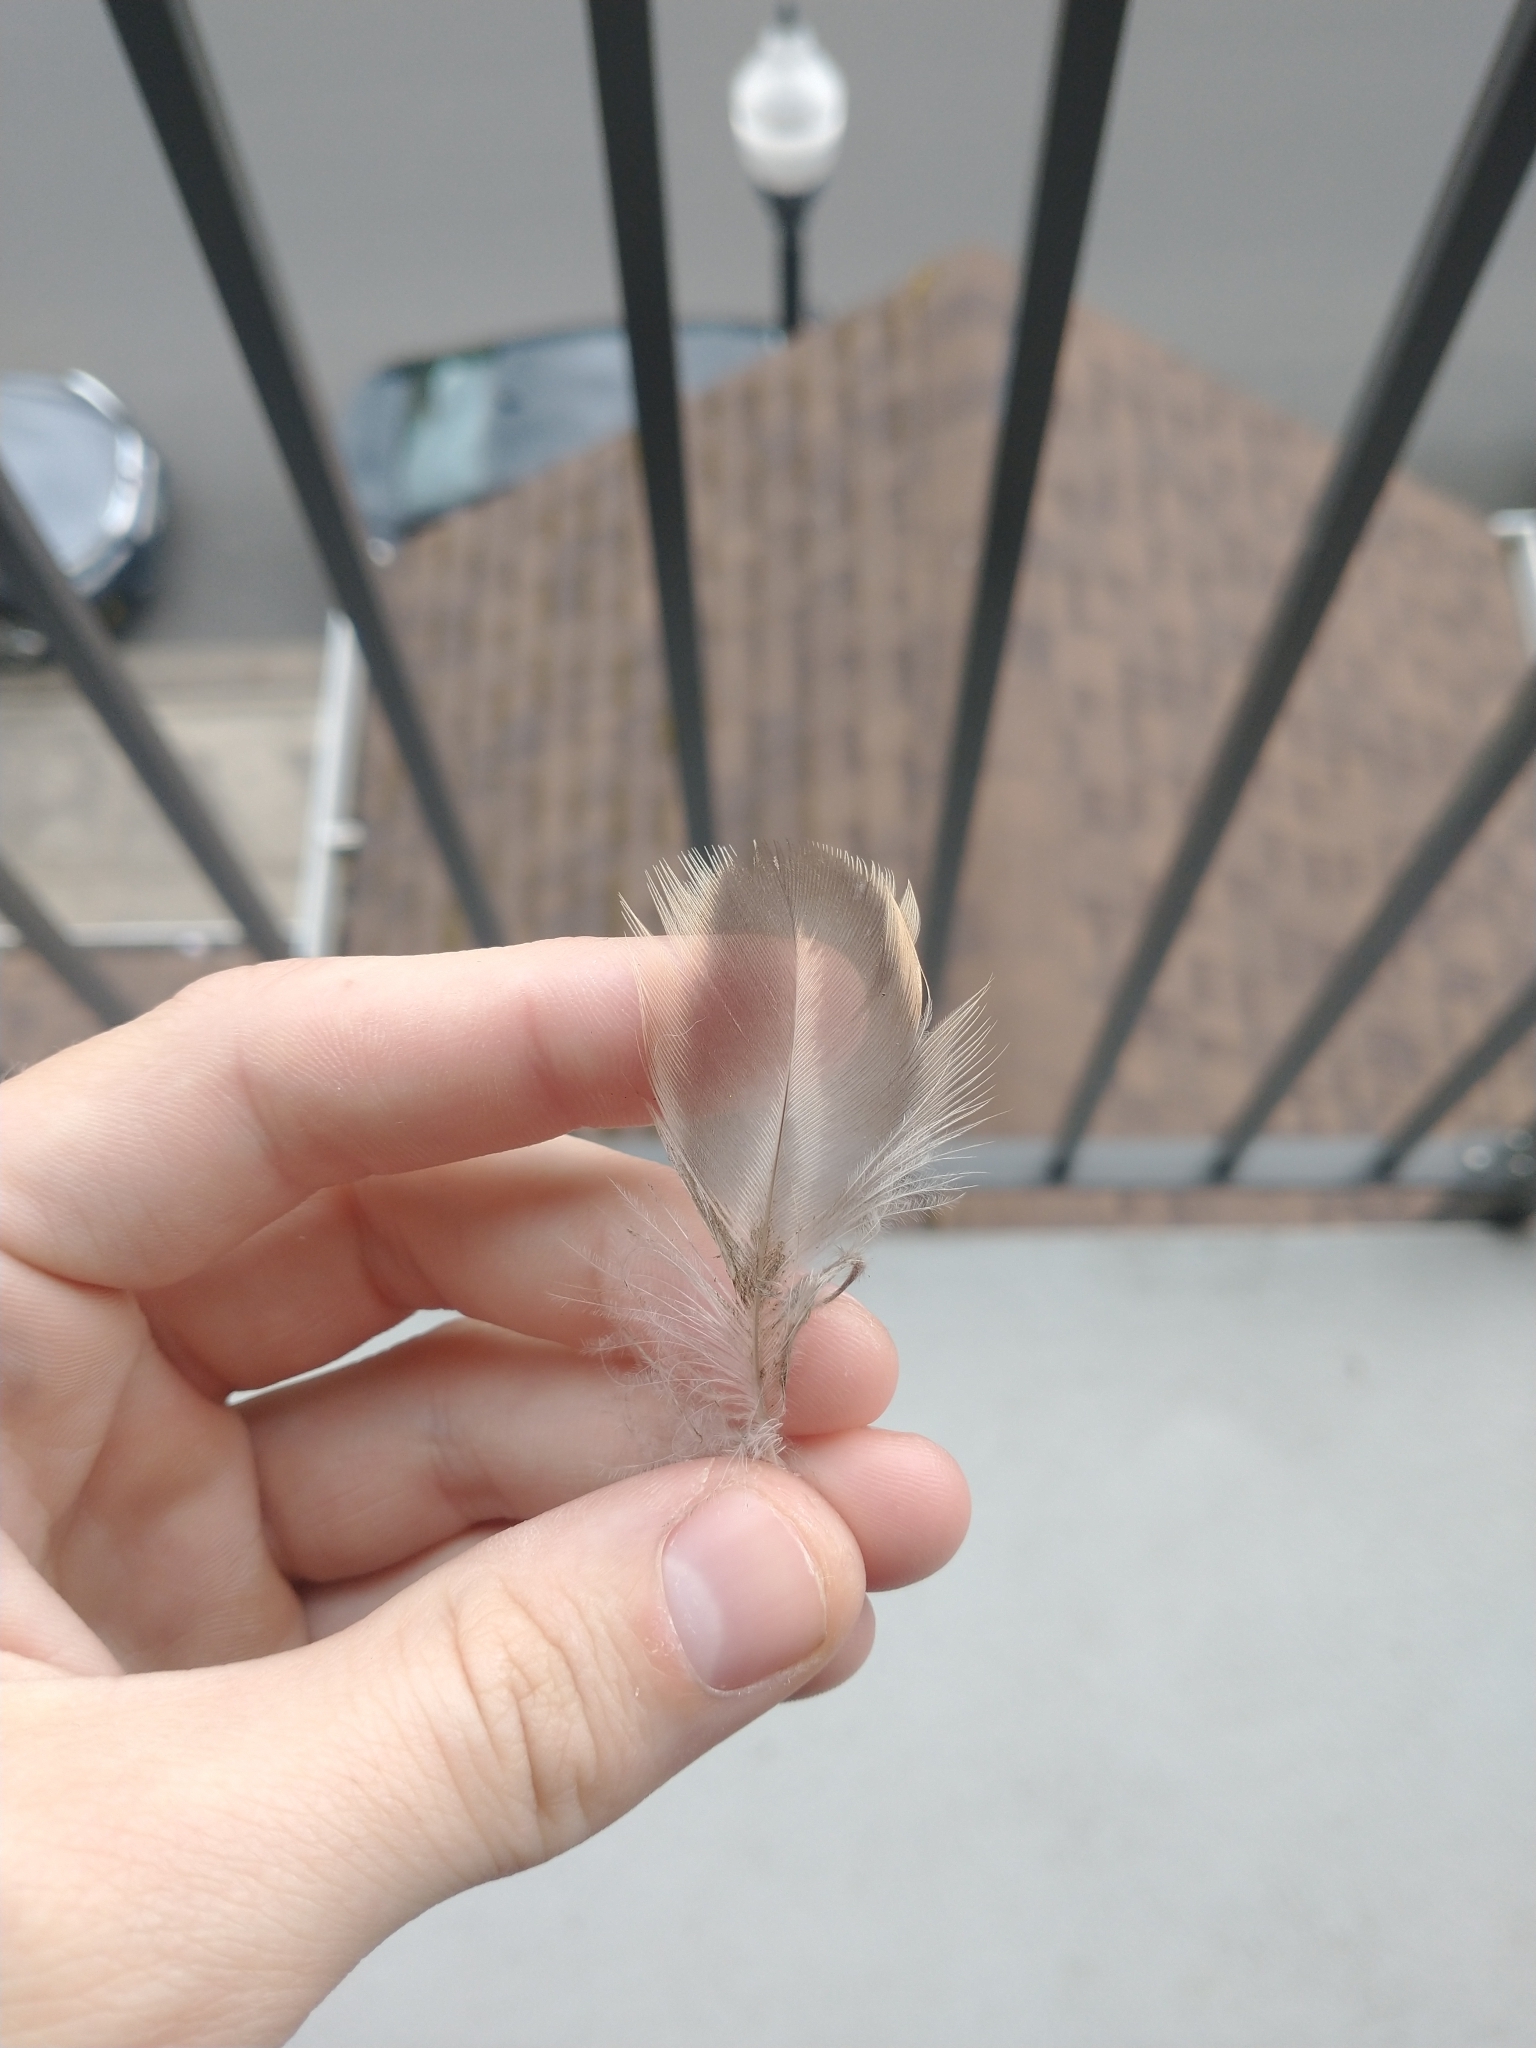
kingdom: Animalia
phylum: Chordata
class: Aves
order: Anseriformes
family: Anatidae
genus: Anas
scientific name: Anas platyrhynchos
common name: Mallard
